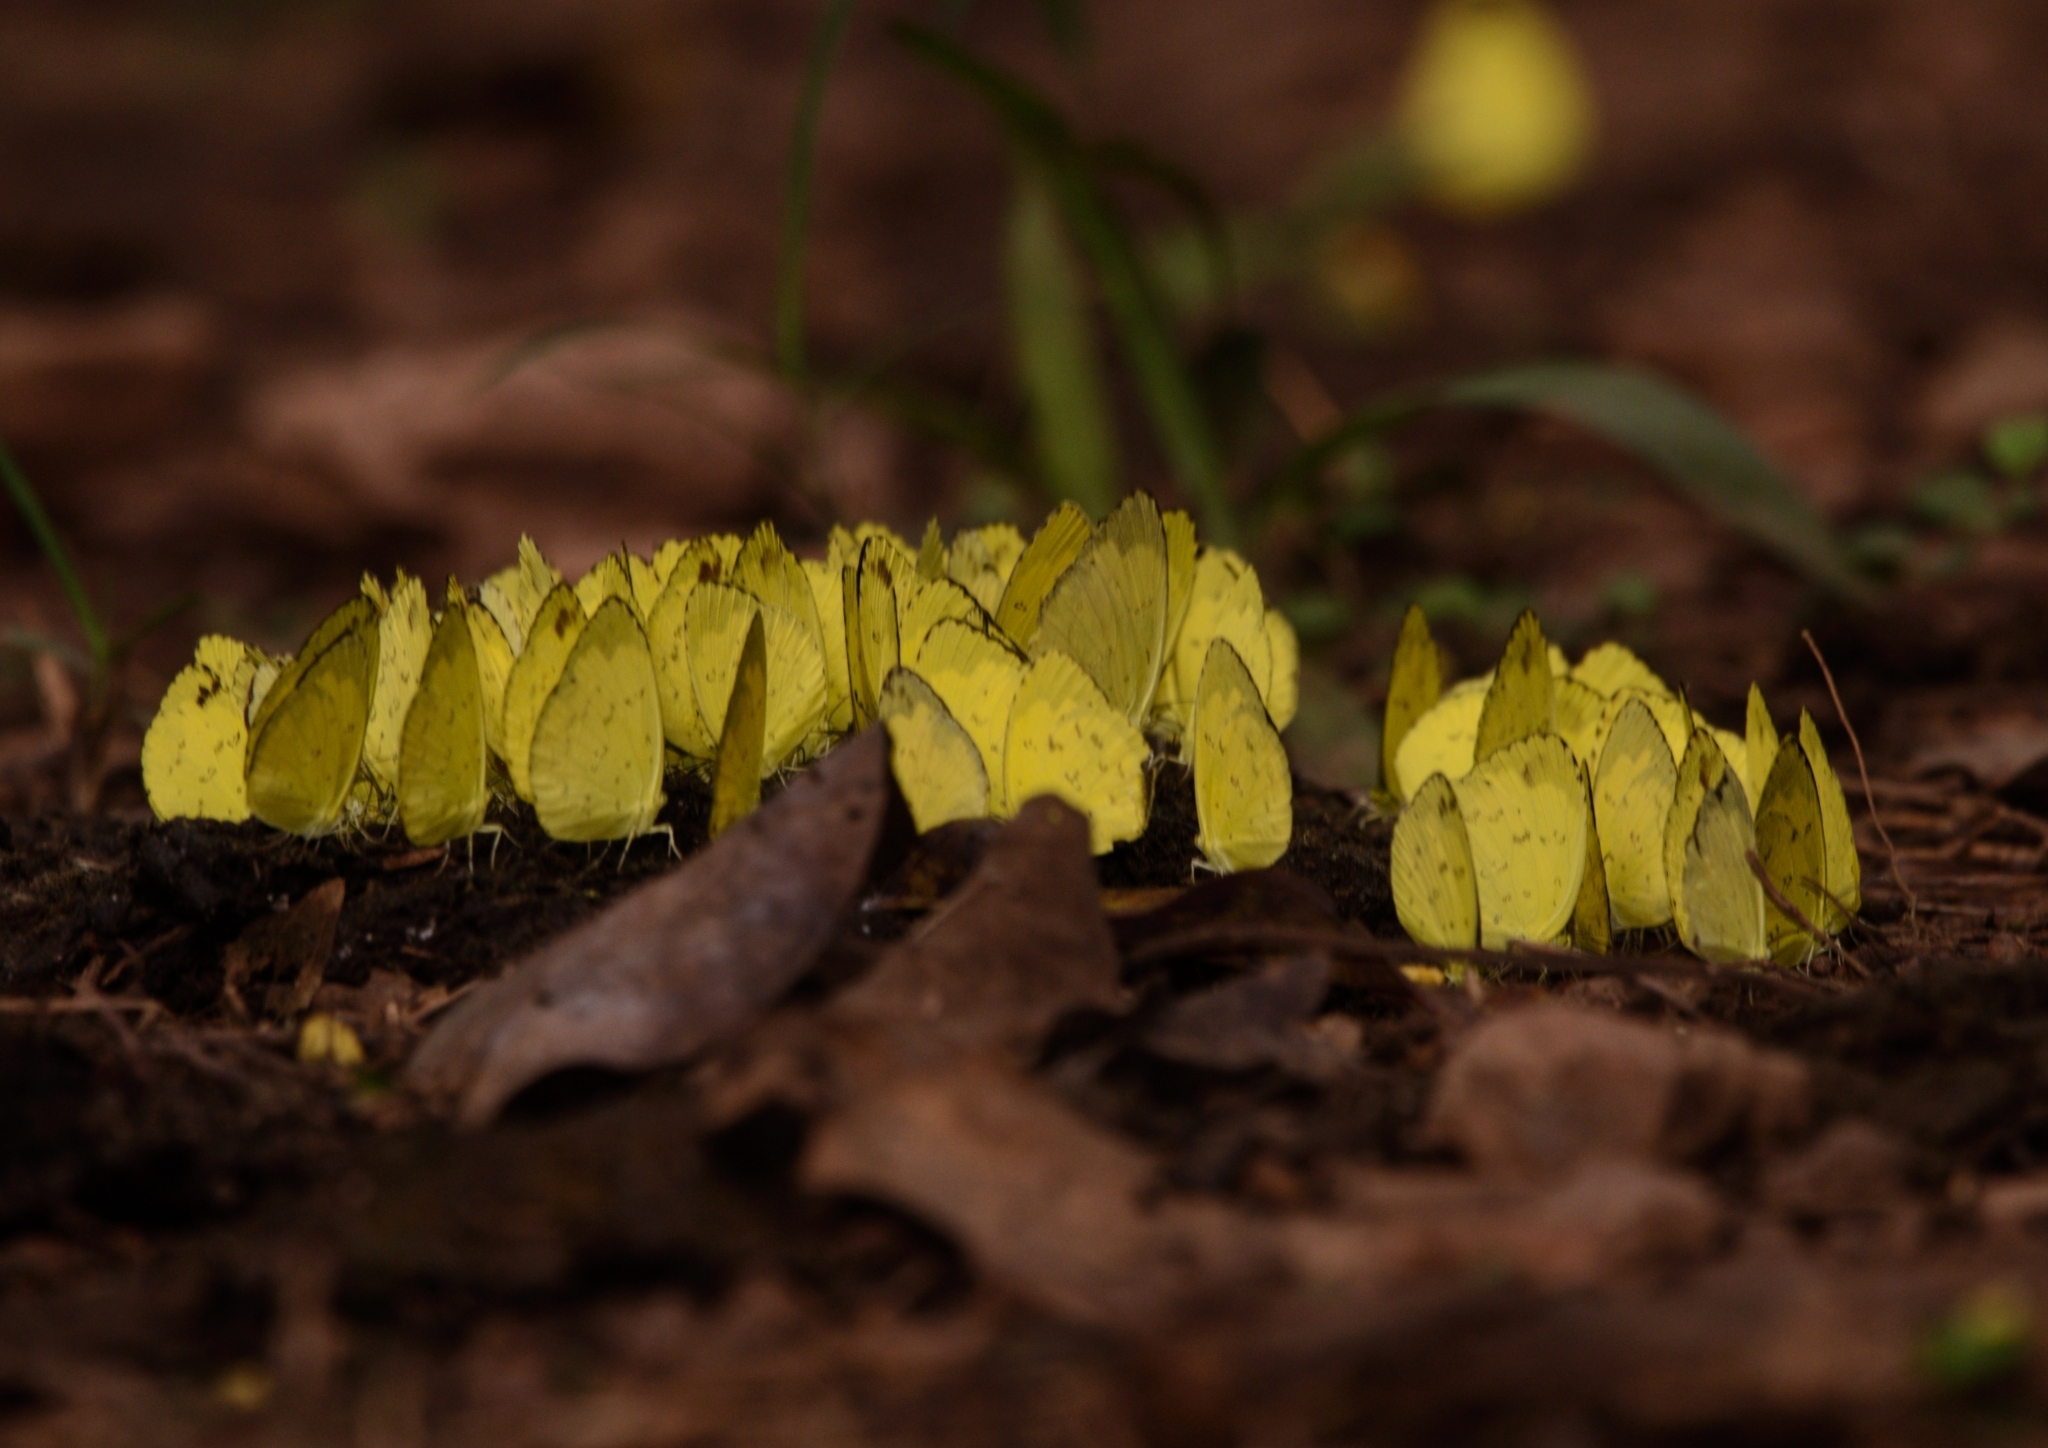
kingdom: Animalia
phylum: Arthropoda
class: Insecta
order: Lepidoptera
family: Pieridae
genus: Eurema
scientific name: Eurema blanda
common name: Three-spot grass yellow
